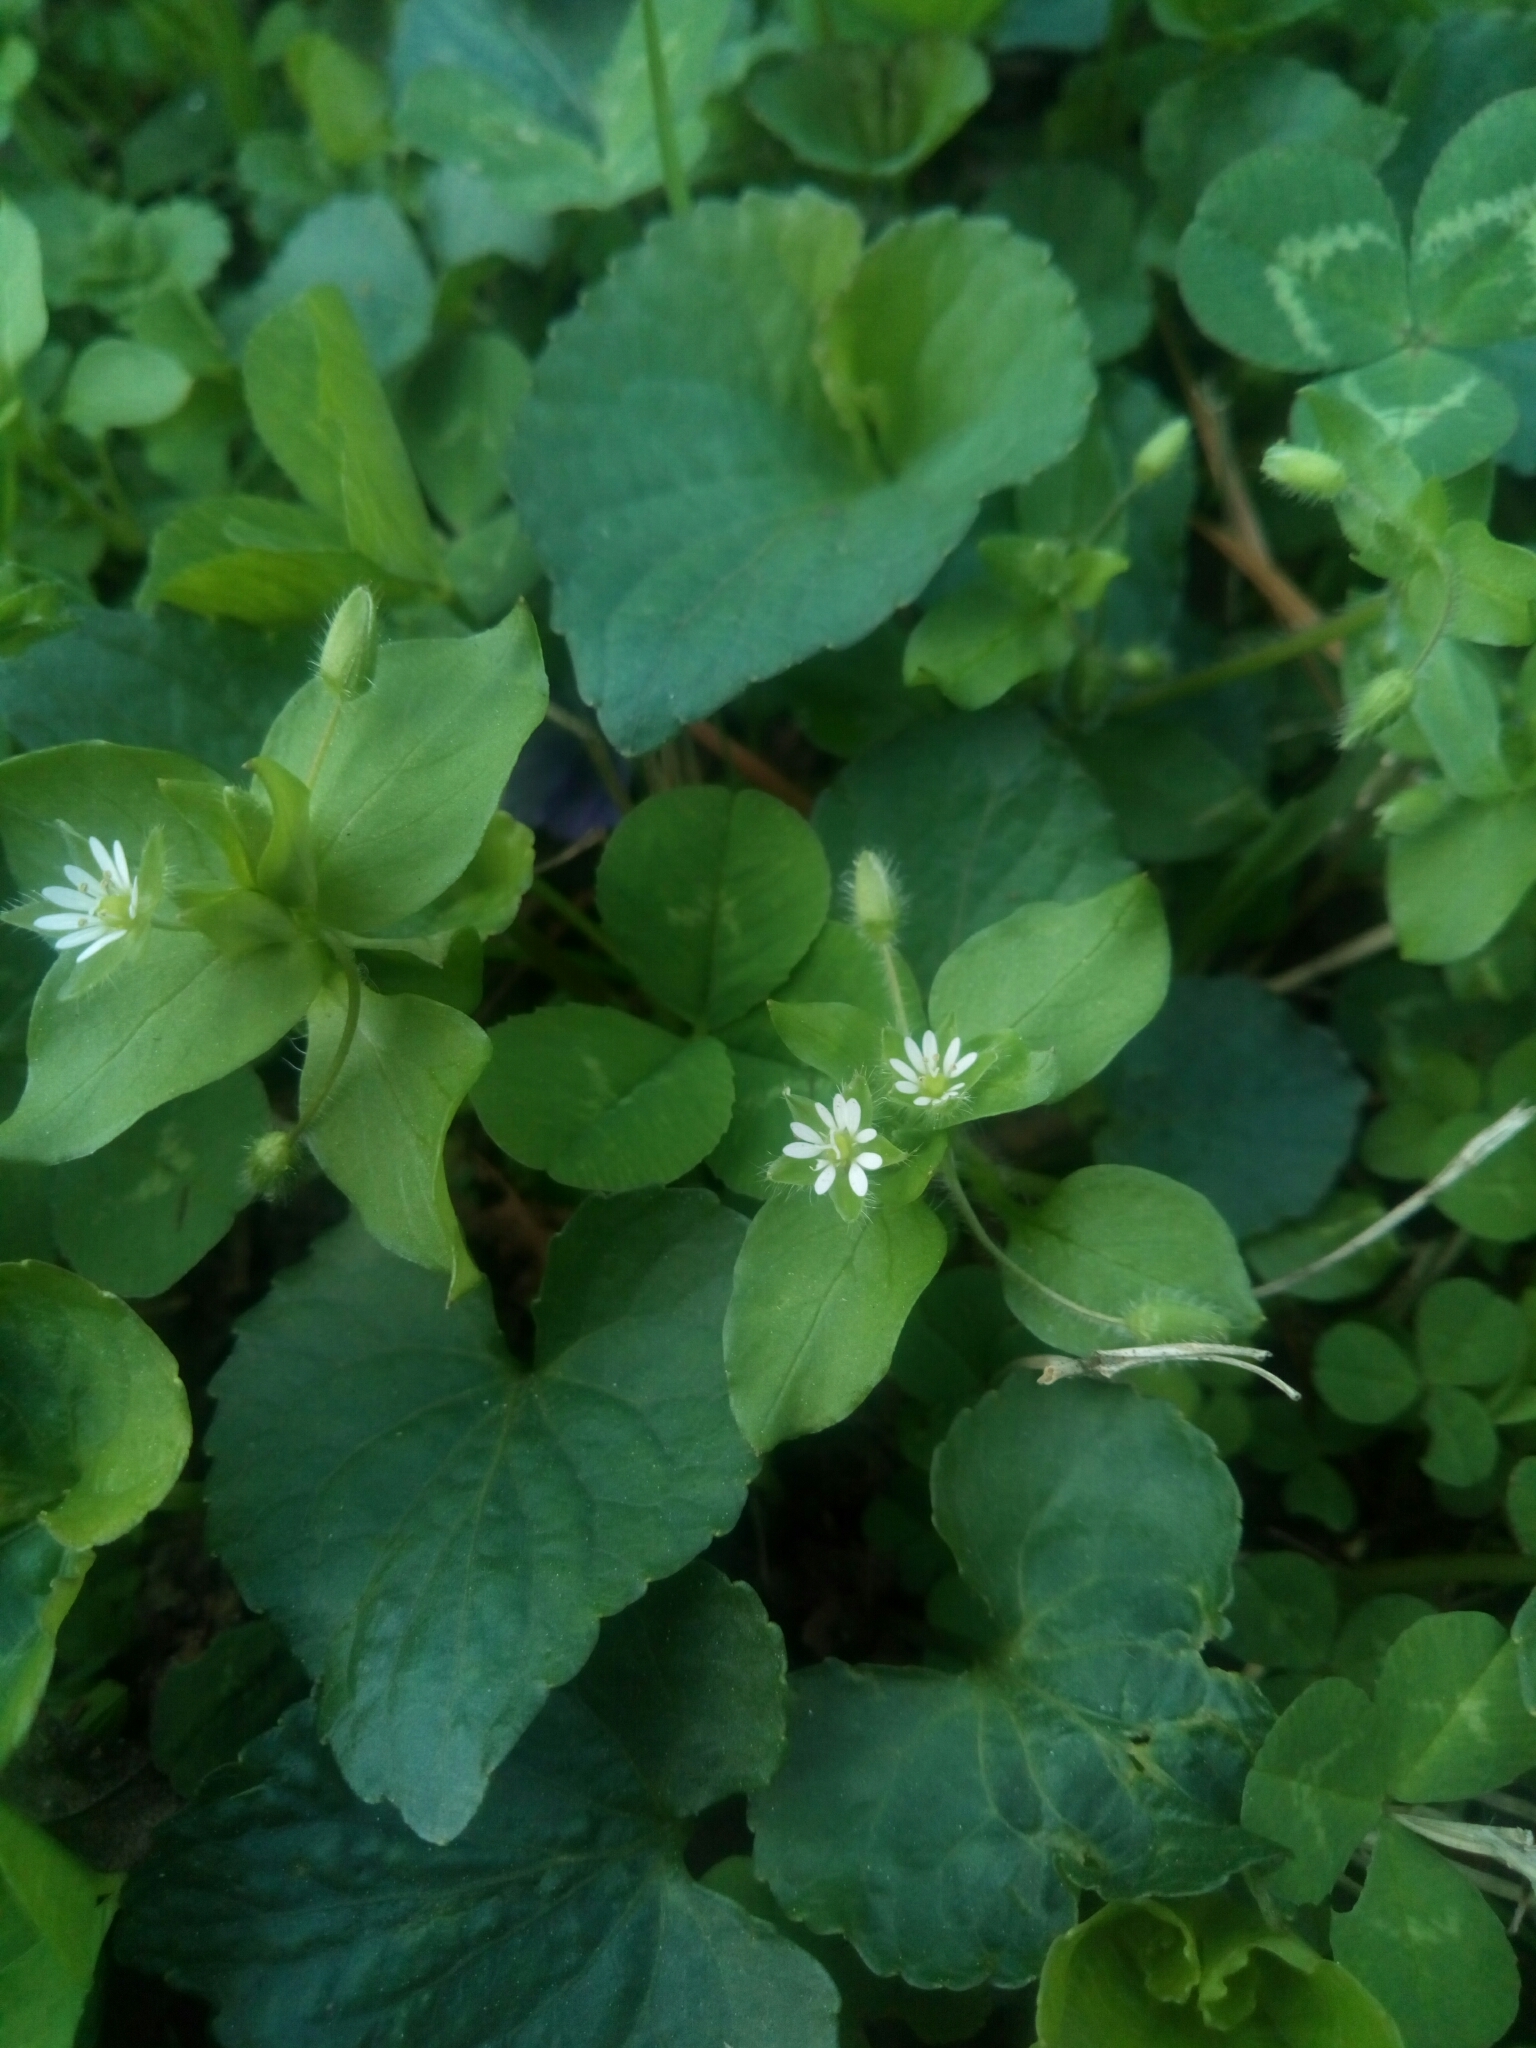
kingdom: Plantae
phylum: Tracheophyta
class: Magnoliopsida
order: Caryophyllales
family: Caryophyllaceae
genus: Stellaria
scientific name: Stellaria media
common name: Common chickweed
